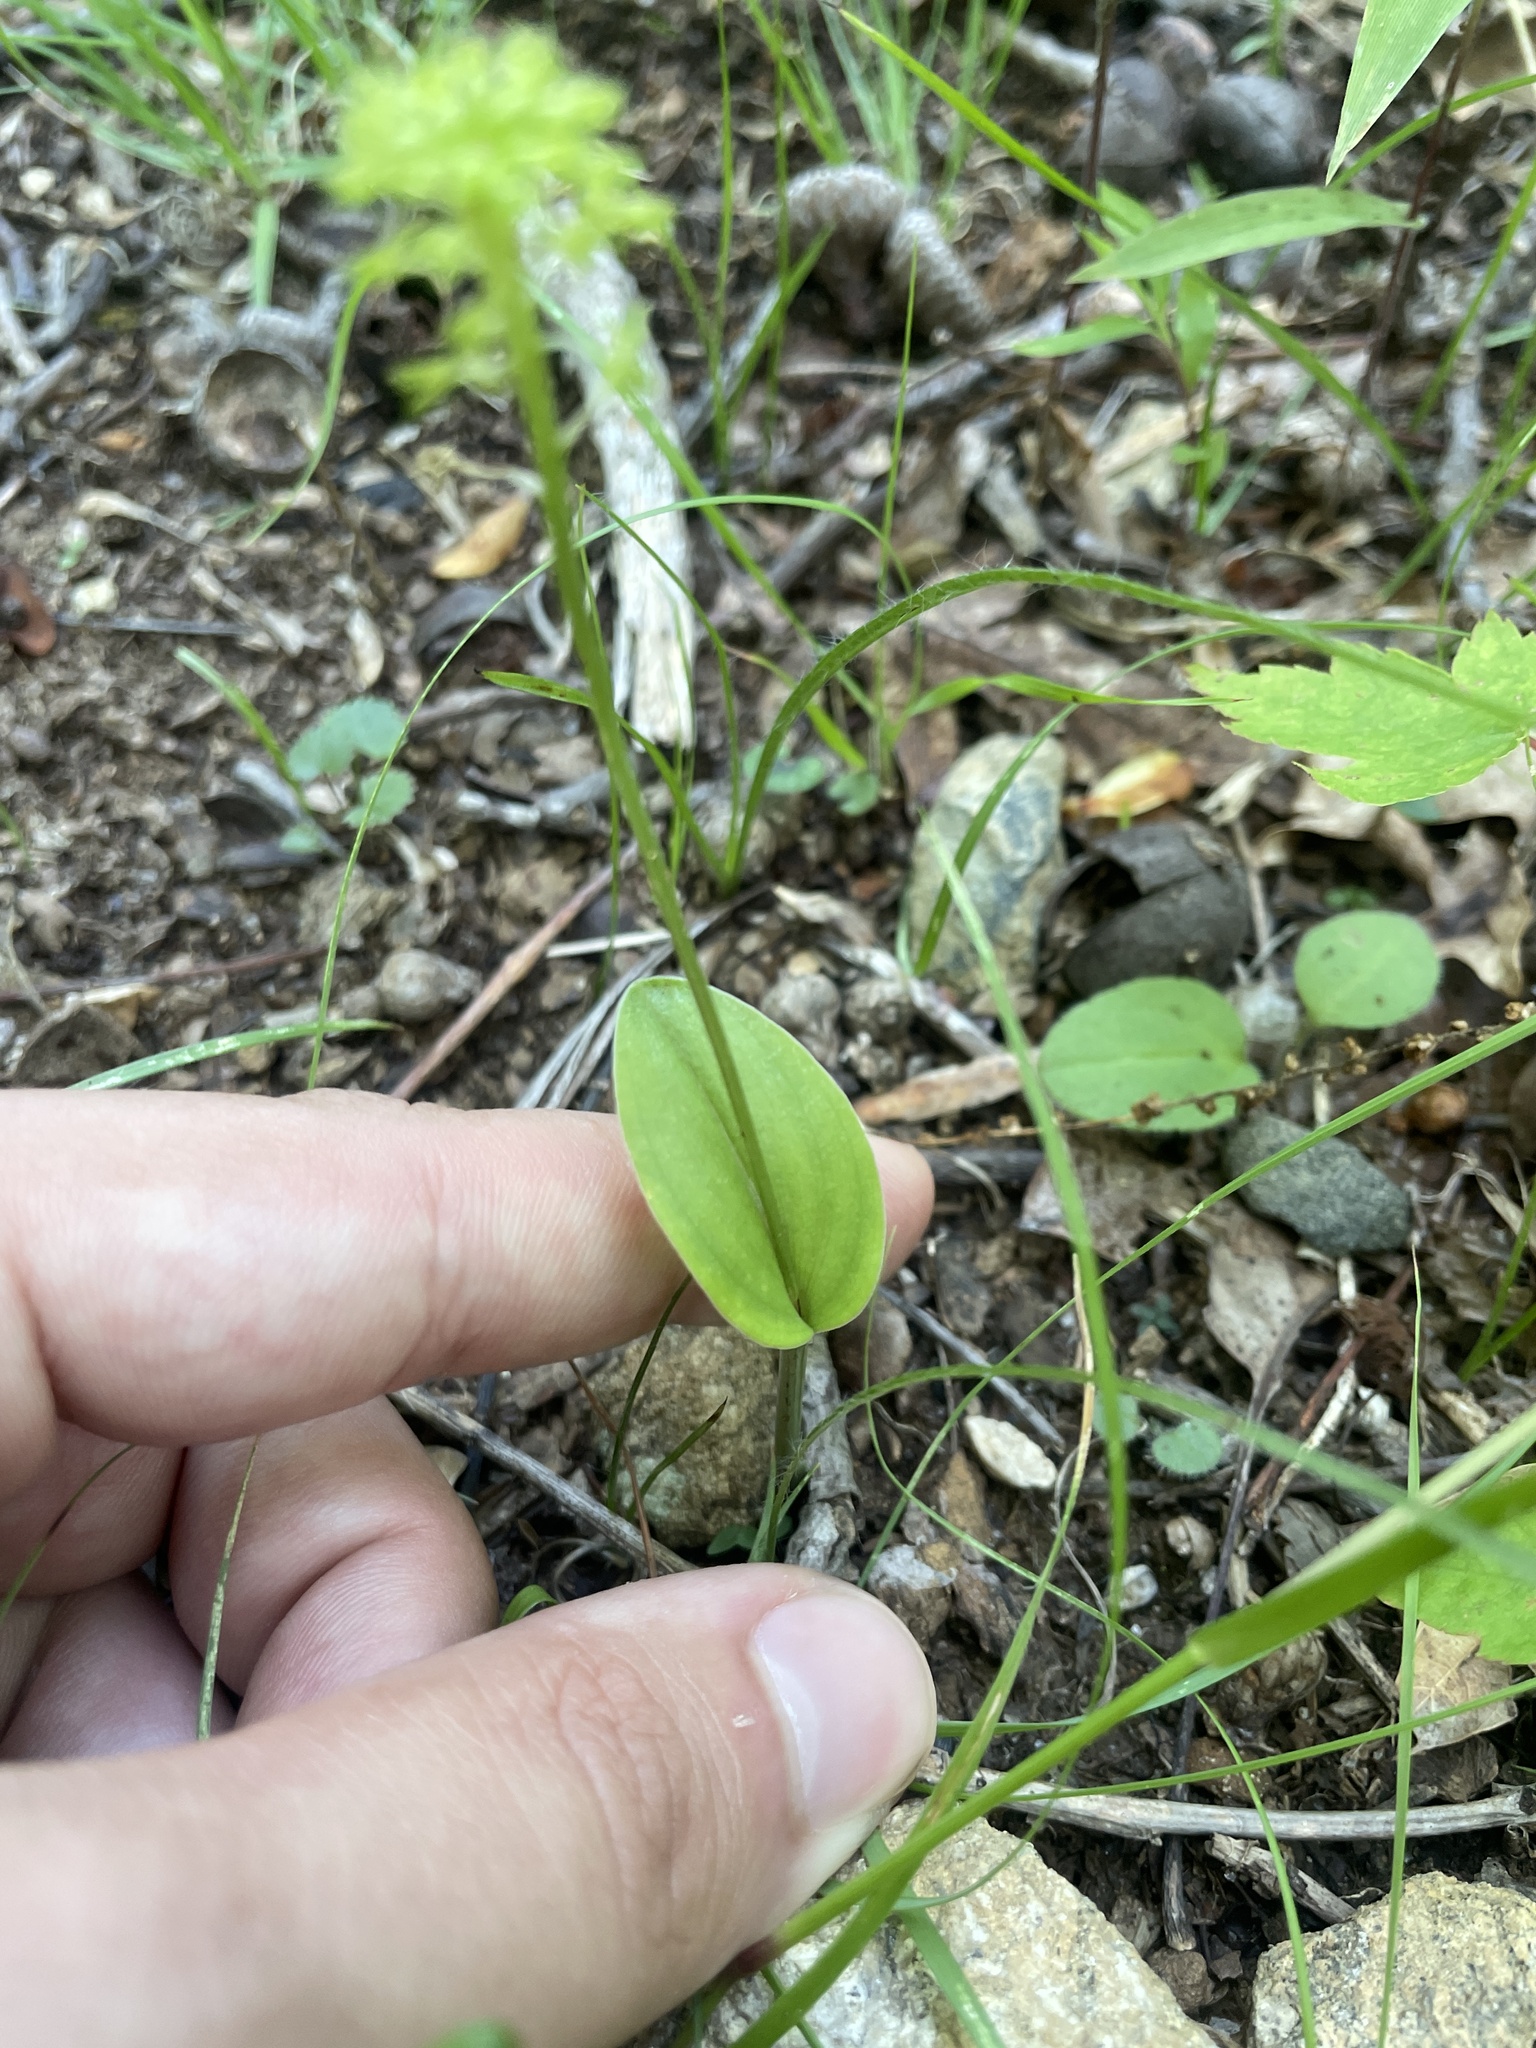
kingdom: Plantae
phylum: Tracheophyta
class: Liliopsida
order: Asparagales
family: Orchidaceae
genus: Malaxis
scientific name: Malaxis unifolia
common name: Green adder's-mouth
